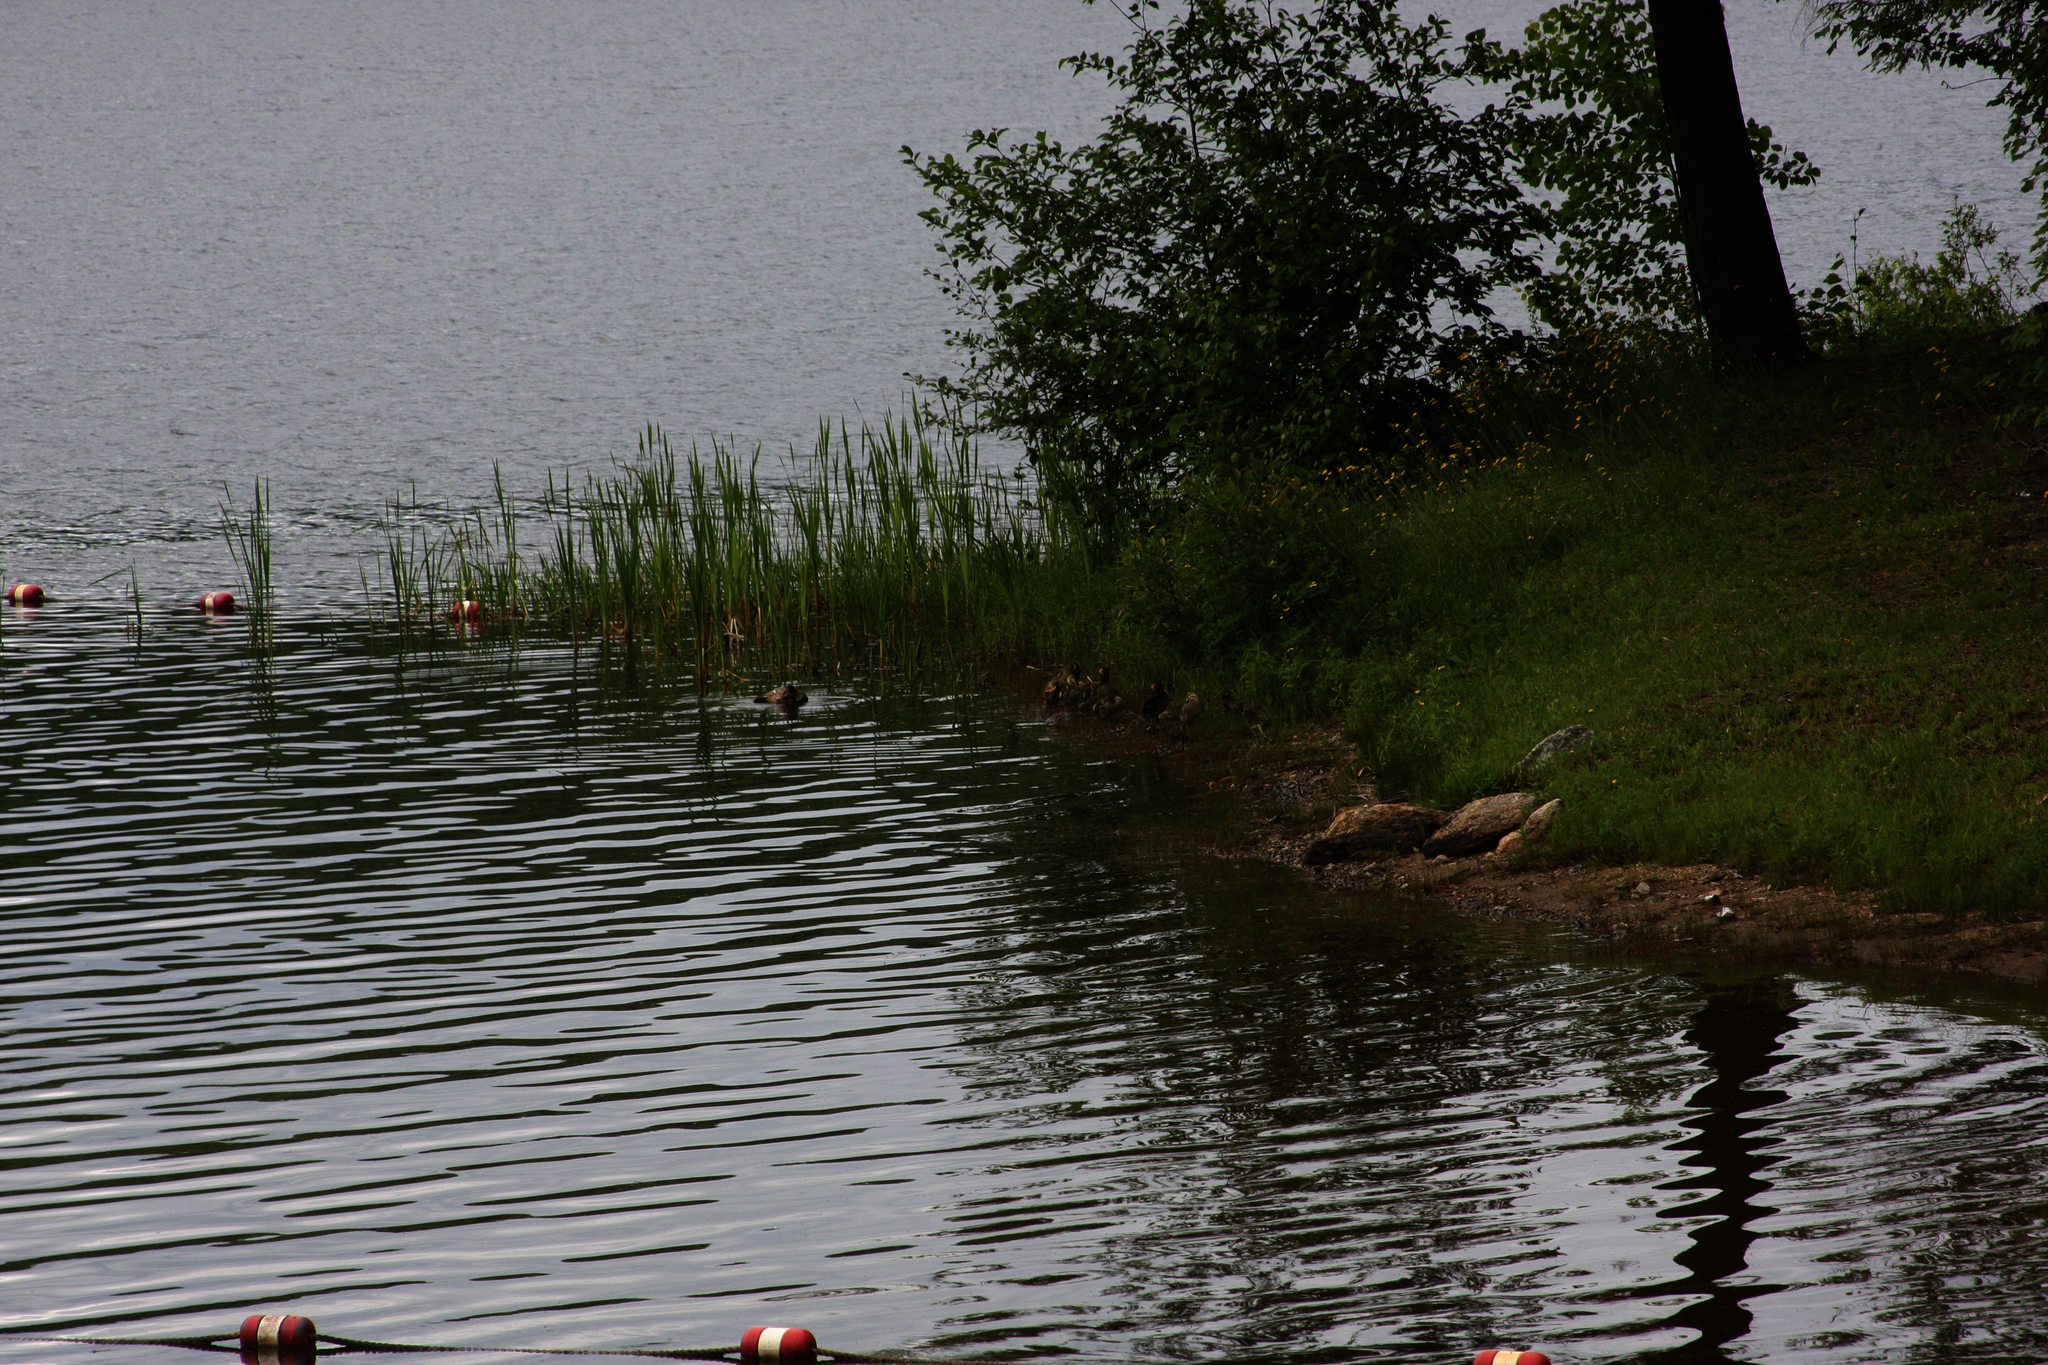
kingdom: Animalia
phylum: Chordata
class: Aves
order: Anseriformes
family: Anatidae
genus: Anas
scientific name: Anas platyrhynchos
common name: Mallard
